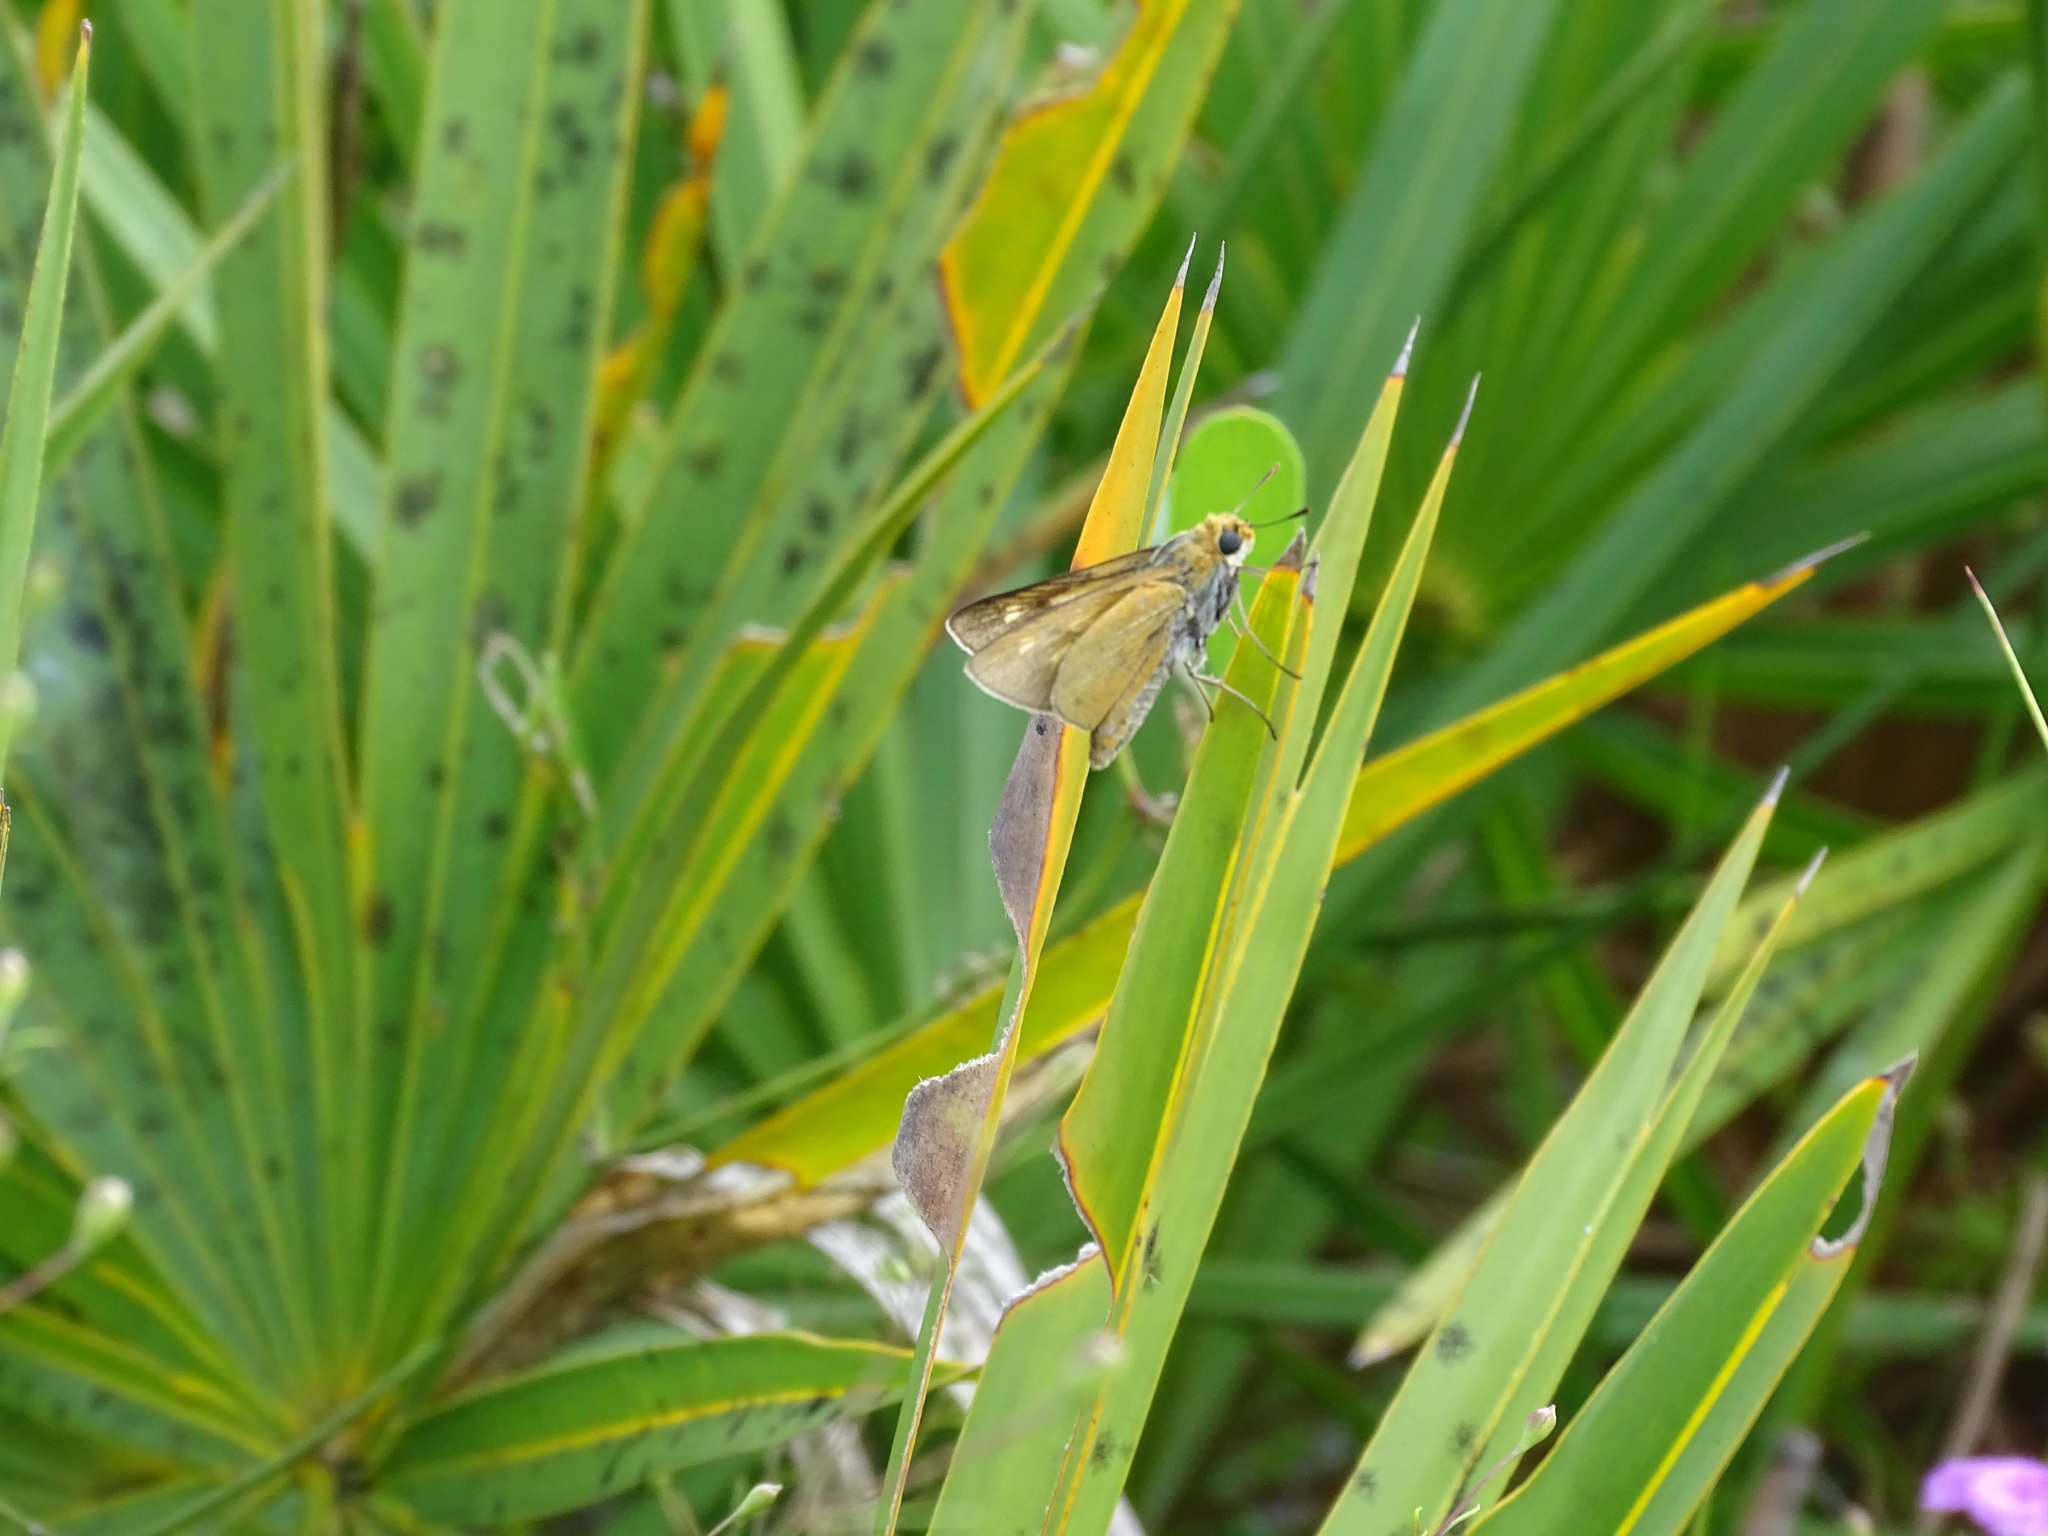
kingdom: Animalia
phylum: Arthropoda
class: Insecta
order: Lepidoptera
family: Hesperiidae
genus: Euphyes
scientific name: Euphyes arpa
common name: Palmetto skipper
